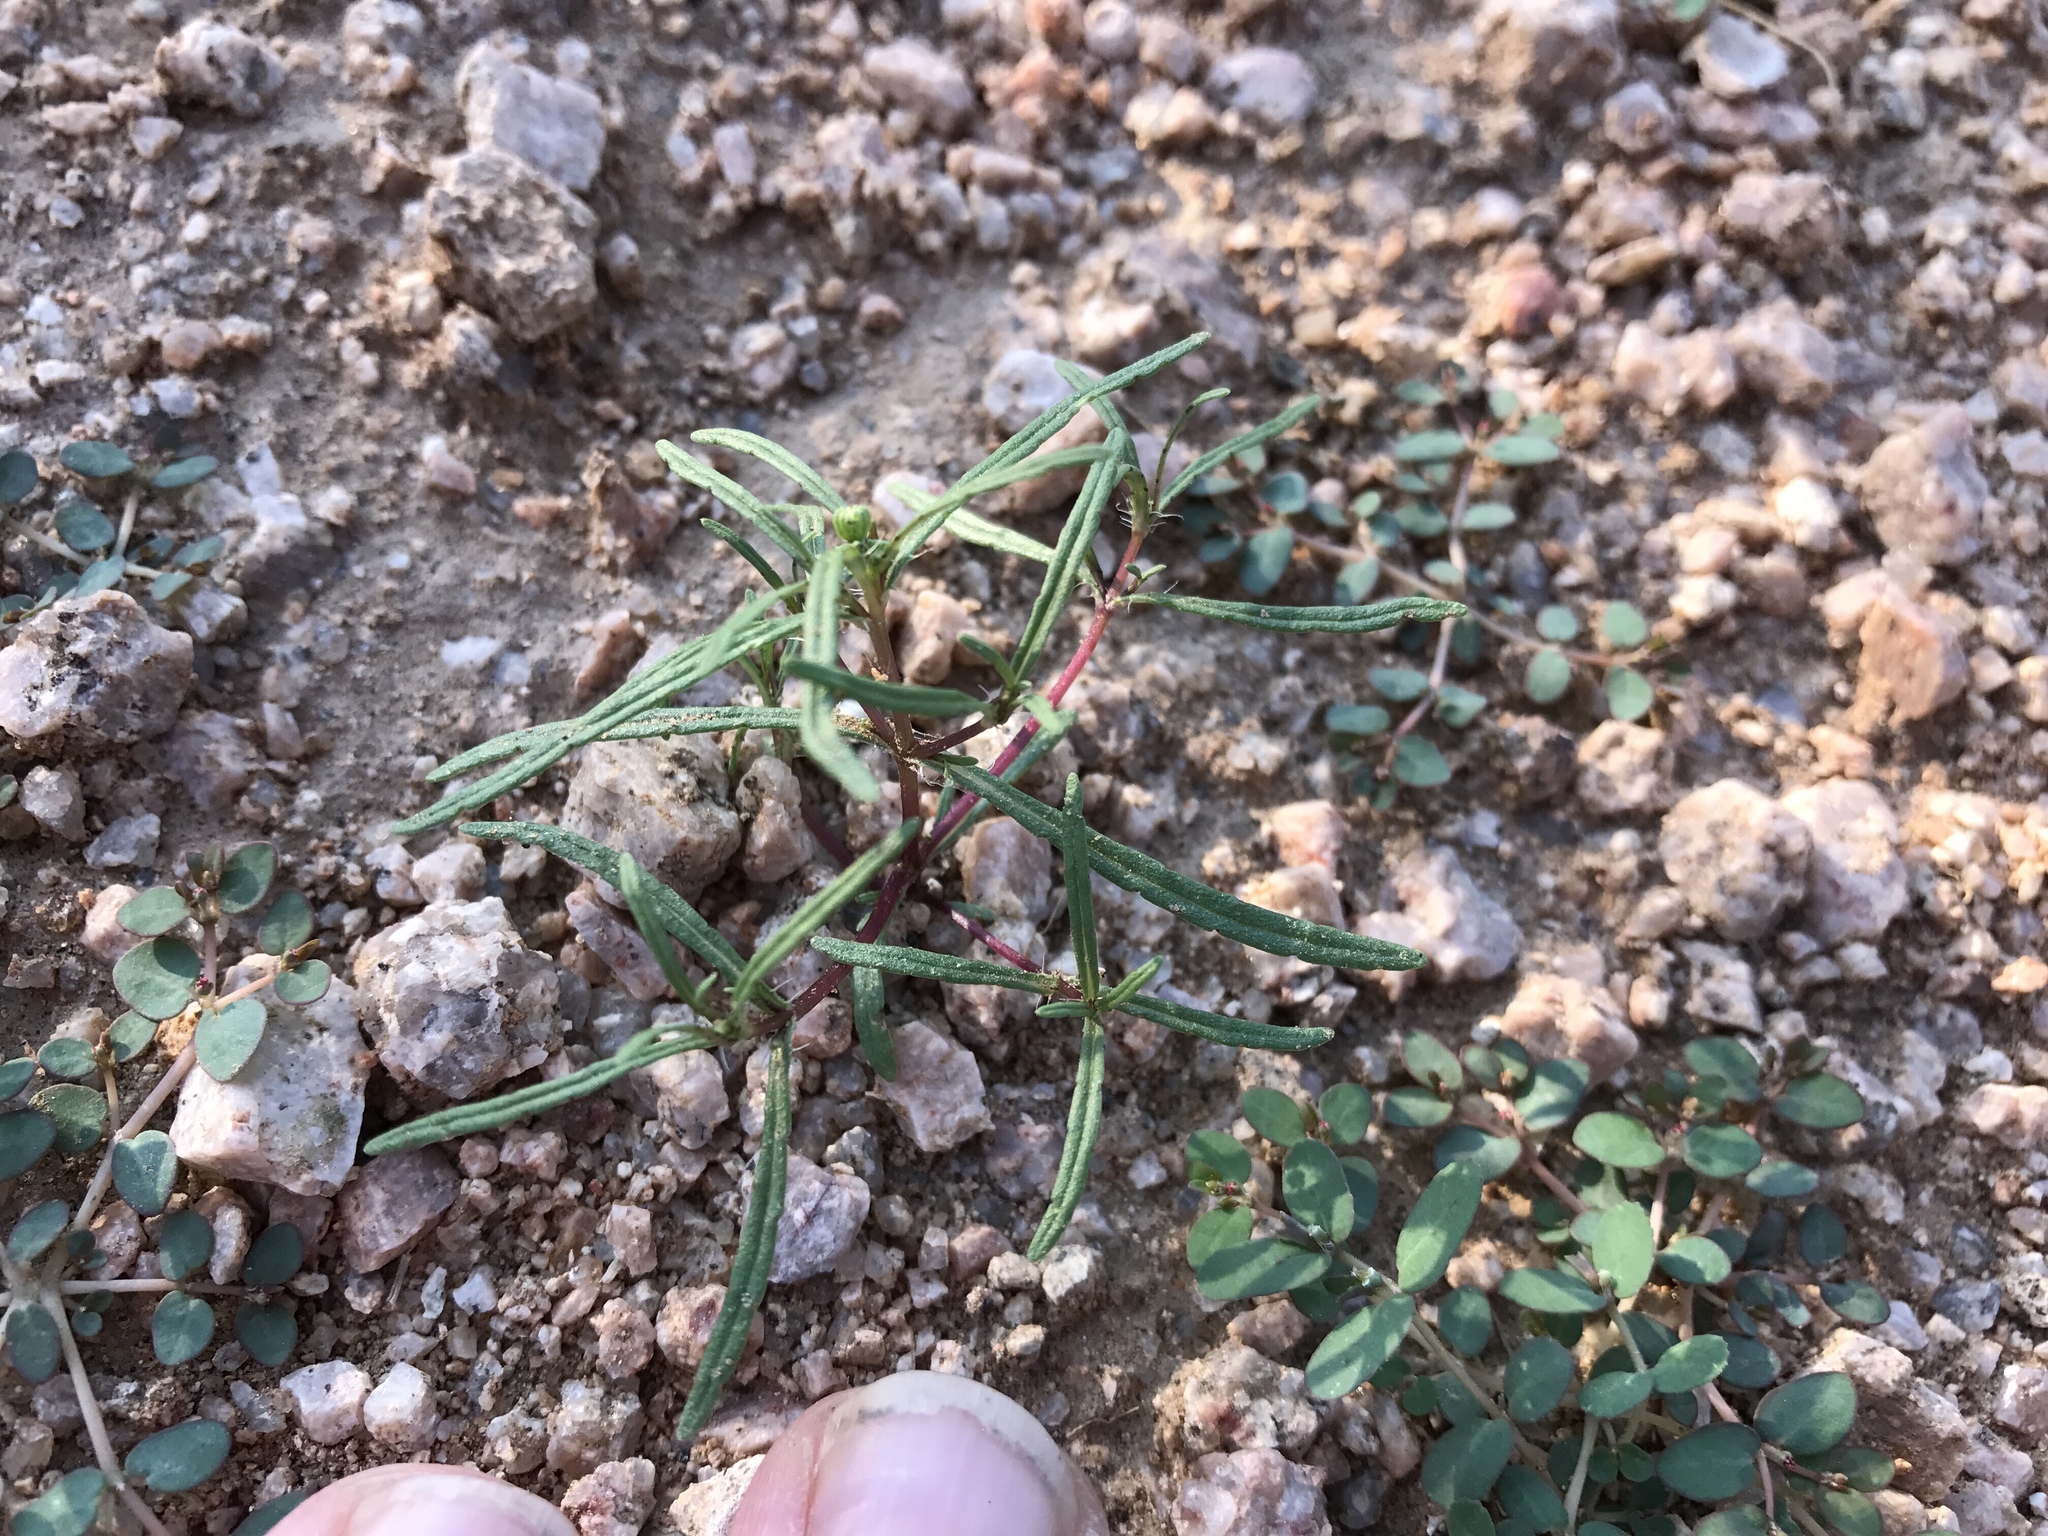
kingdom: Plantae
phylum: Tracheophyta
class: Magnoliopsida
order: Asterales
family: Asteraceae
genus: Pectis
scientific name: Pectis papposa
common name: Many-bristle chinchweed
